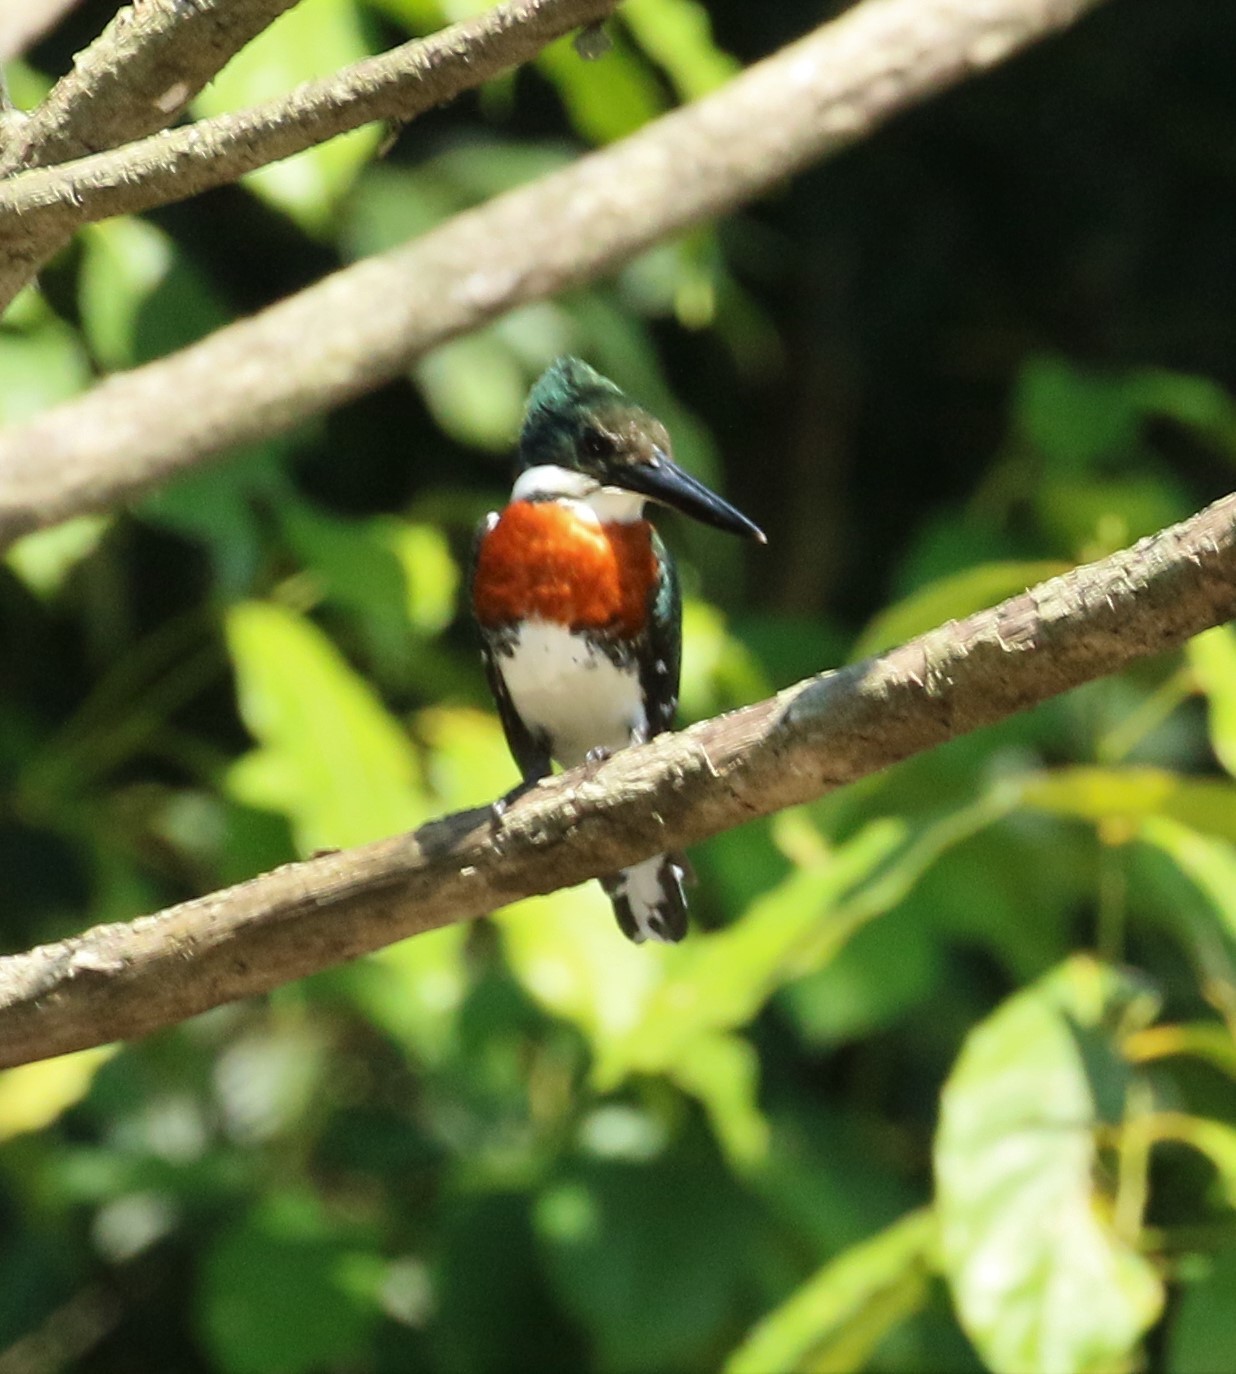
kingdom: Animalia
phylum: Chordata
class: Aves
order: Coraciiformes
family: Alcedinidae
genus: Chloroceryle
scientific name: Chloroceryle americana
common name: Green kingfisher
